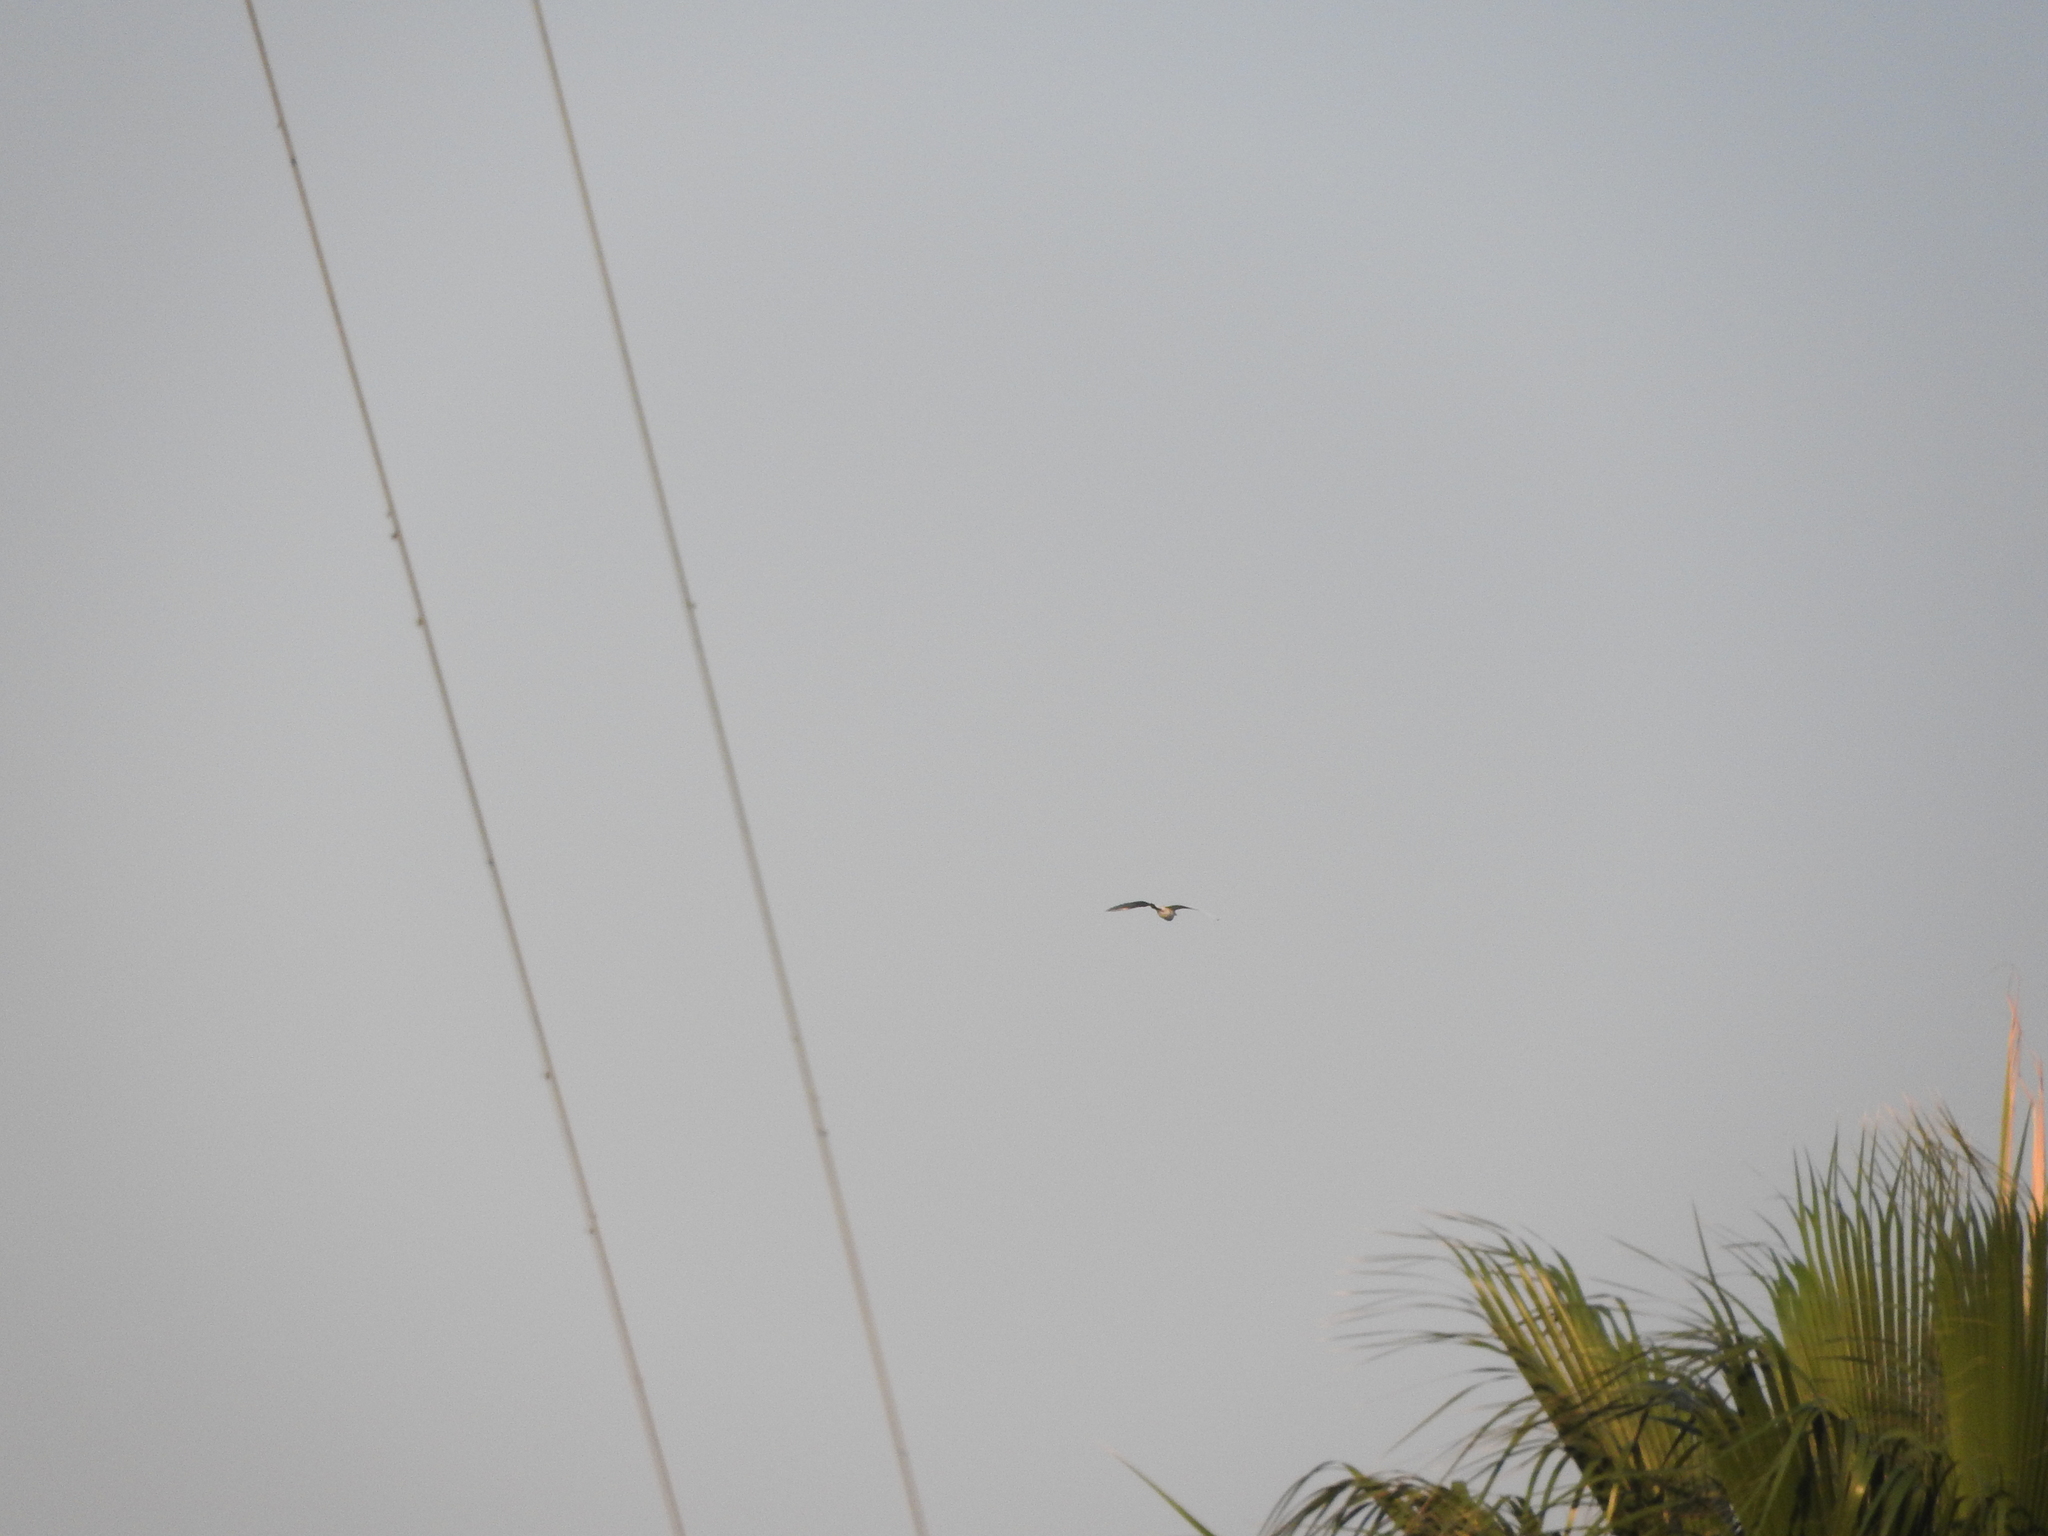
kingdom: Animalia
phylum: Chordata
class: Aves
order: Pelecaniformes
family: Ardeidae
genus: Bubulcus
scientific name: Bubulcus ibis
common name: Cattle egret
